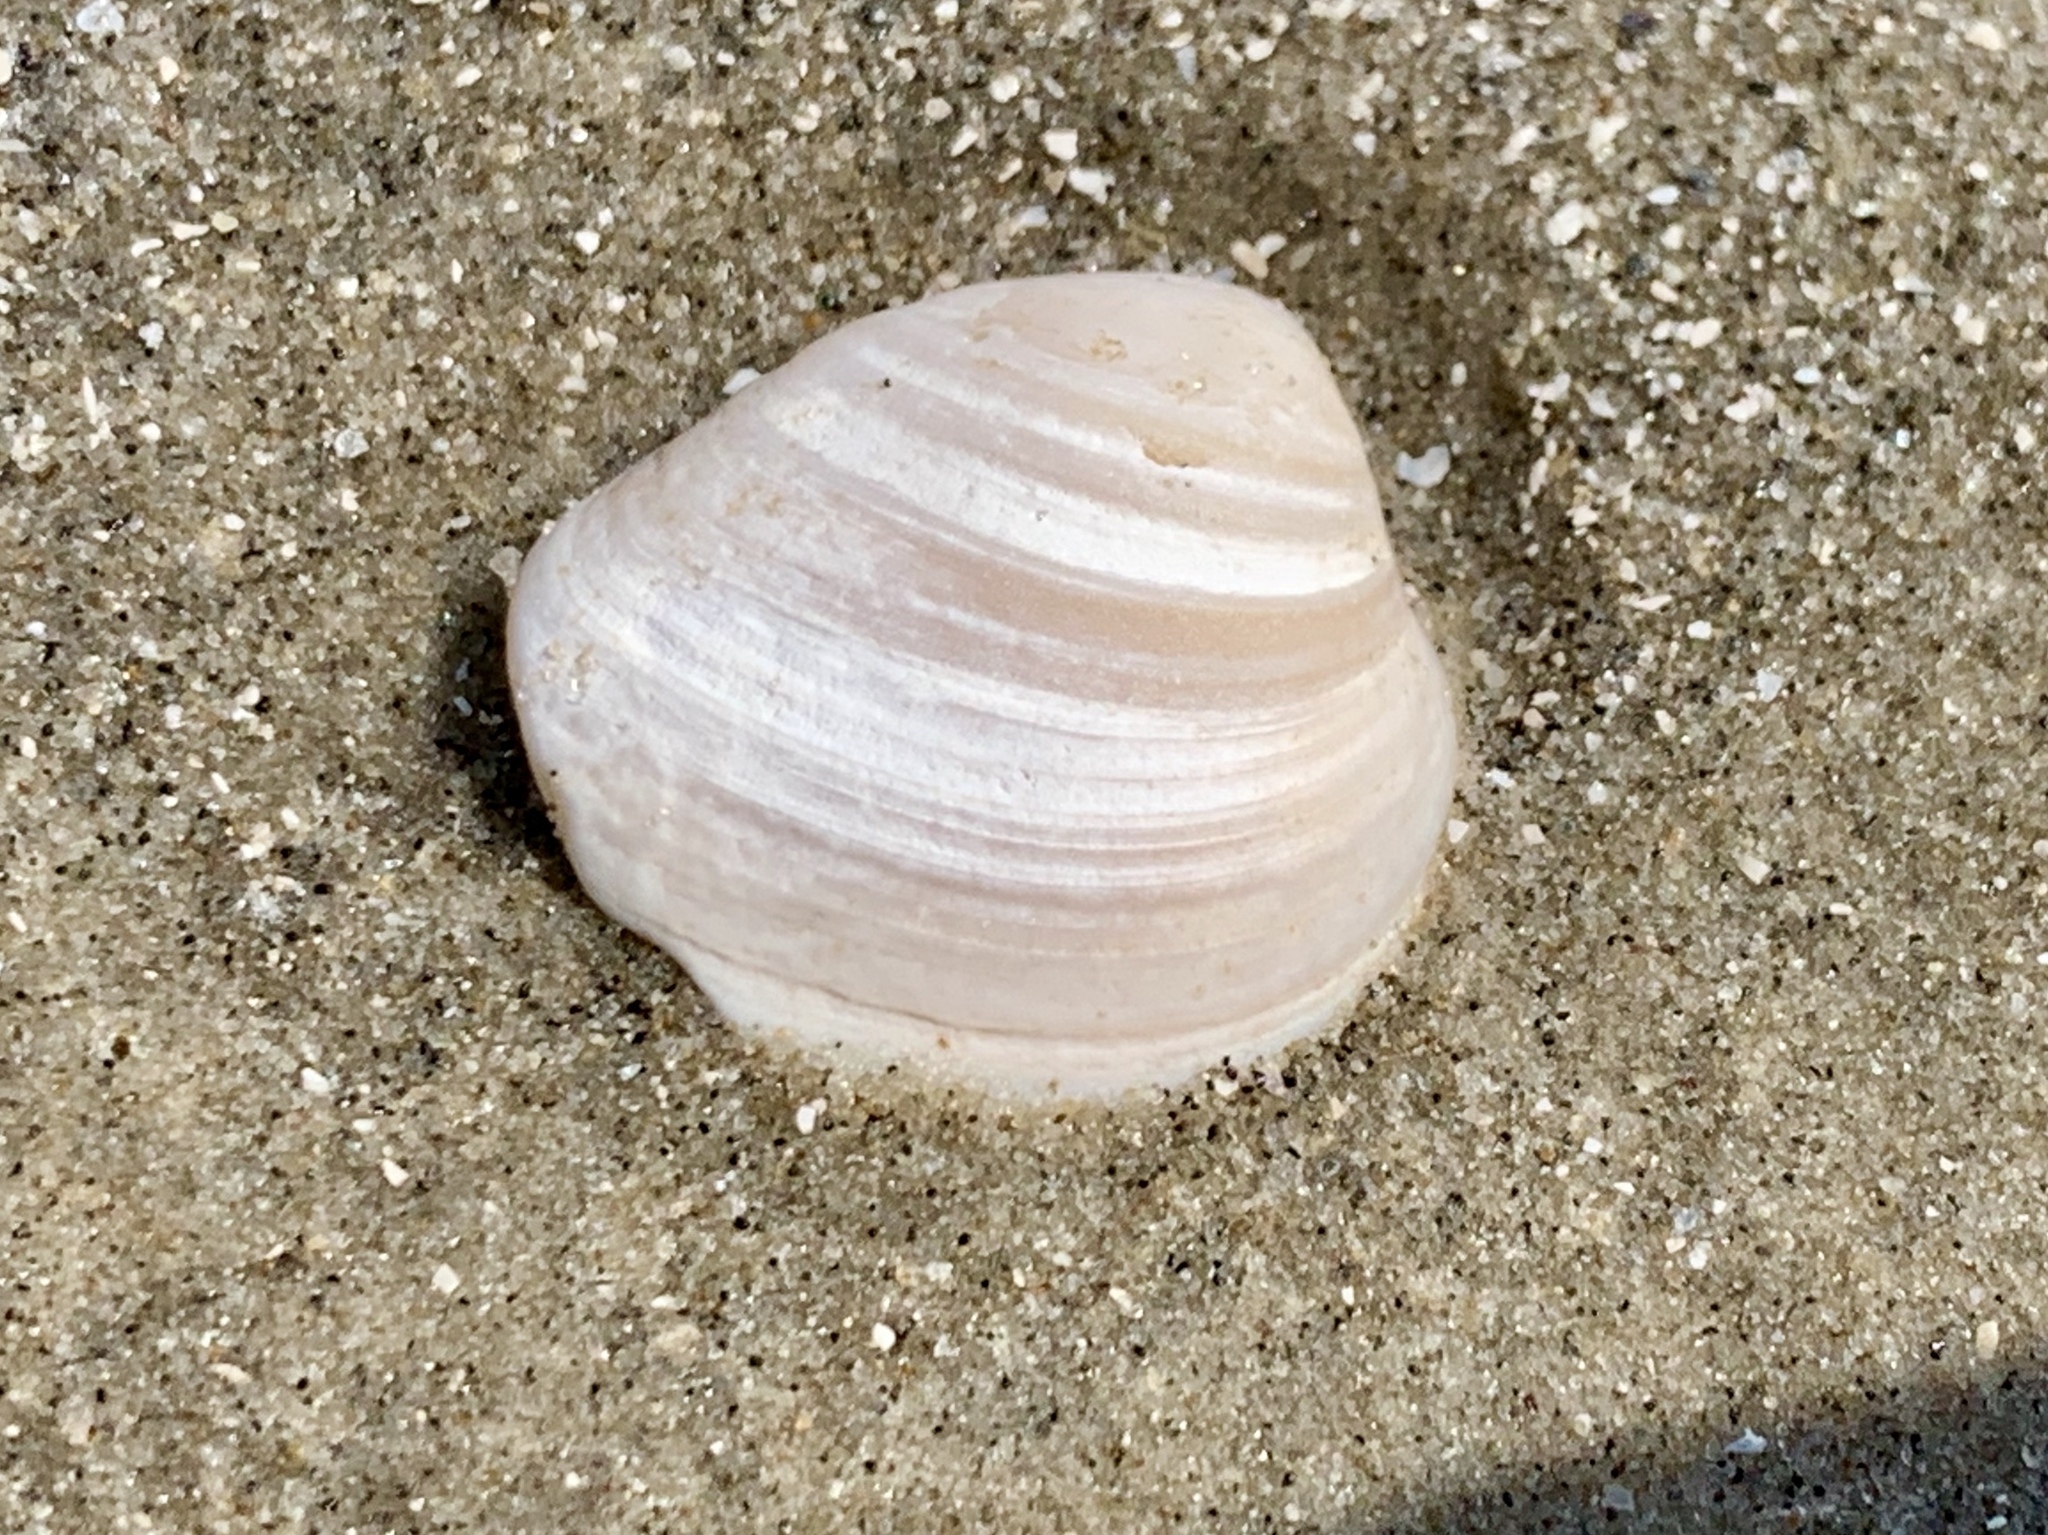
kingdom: Animalia
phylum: Mollusca
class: Bivalvia
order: Venerida
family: Mactridae
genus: Rangia
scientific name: Rangia cuneata
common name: Atlantic rangia
